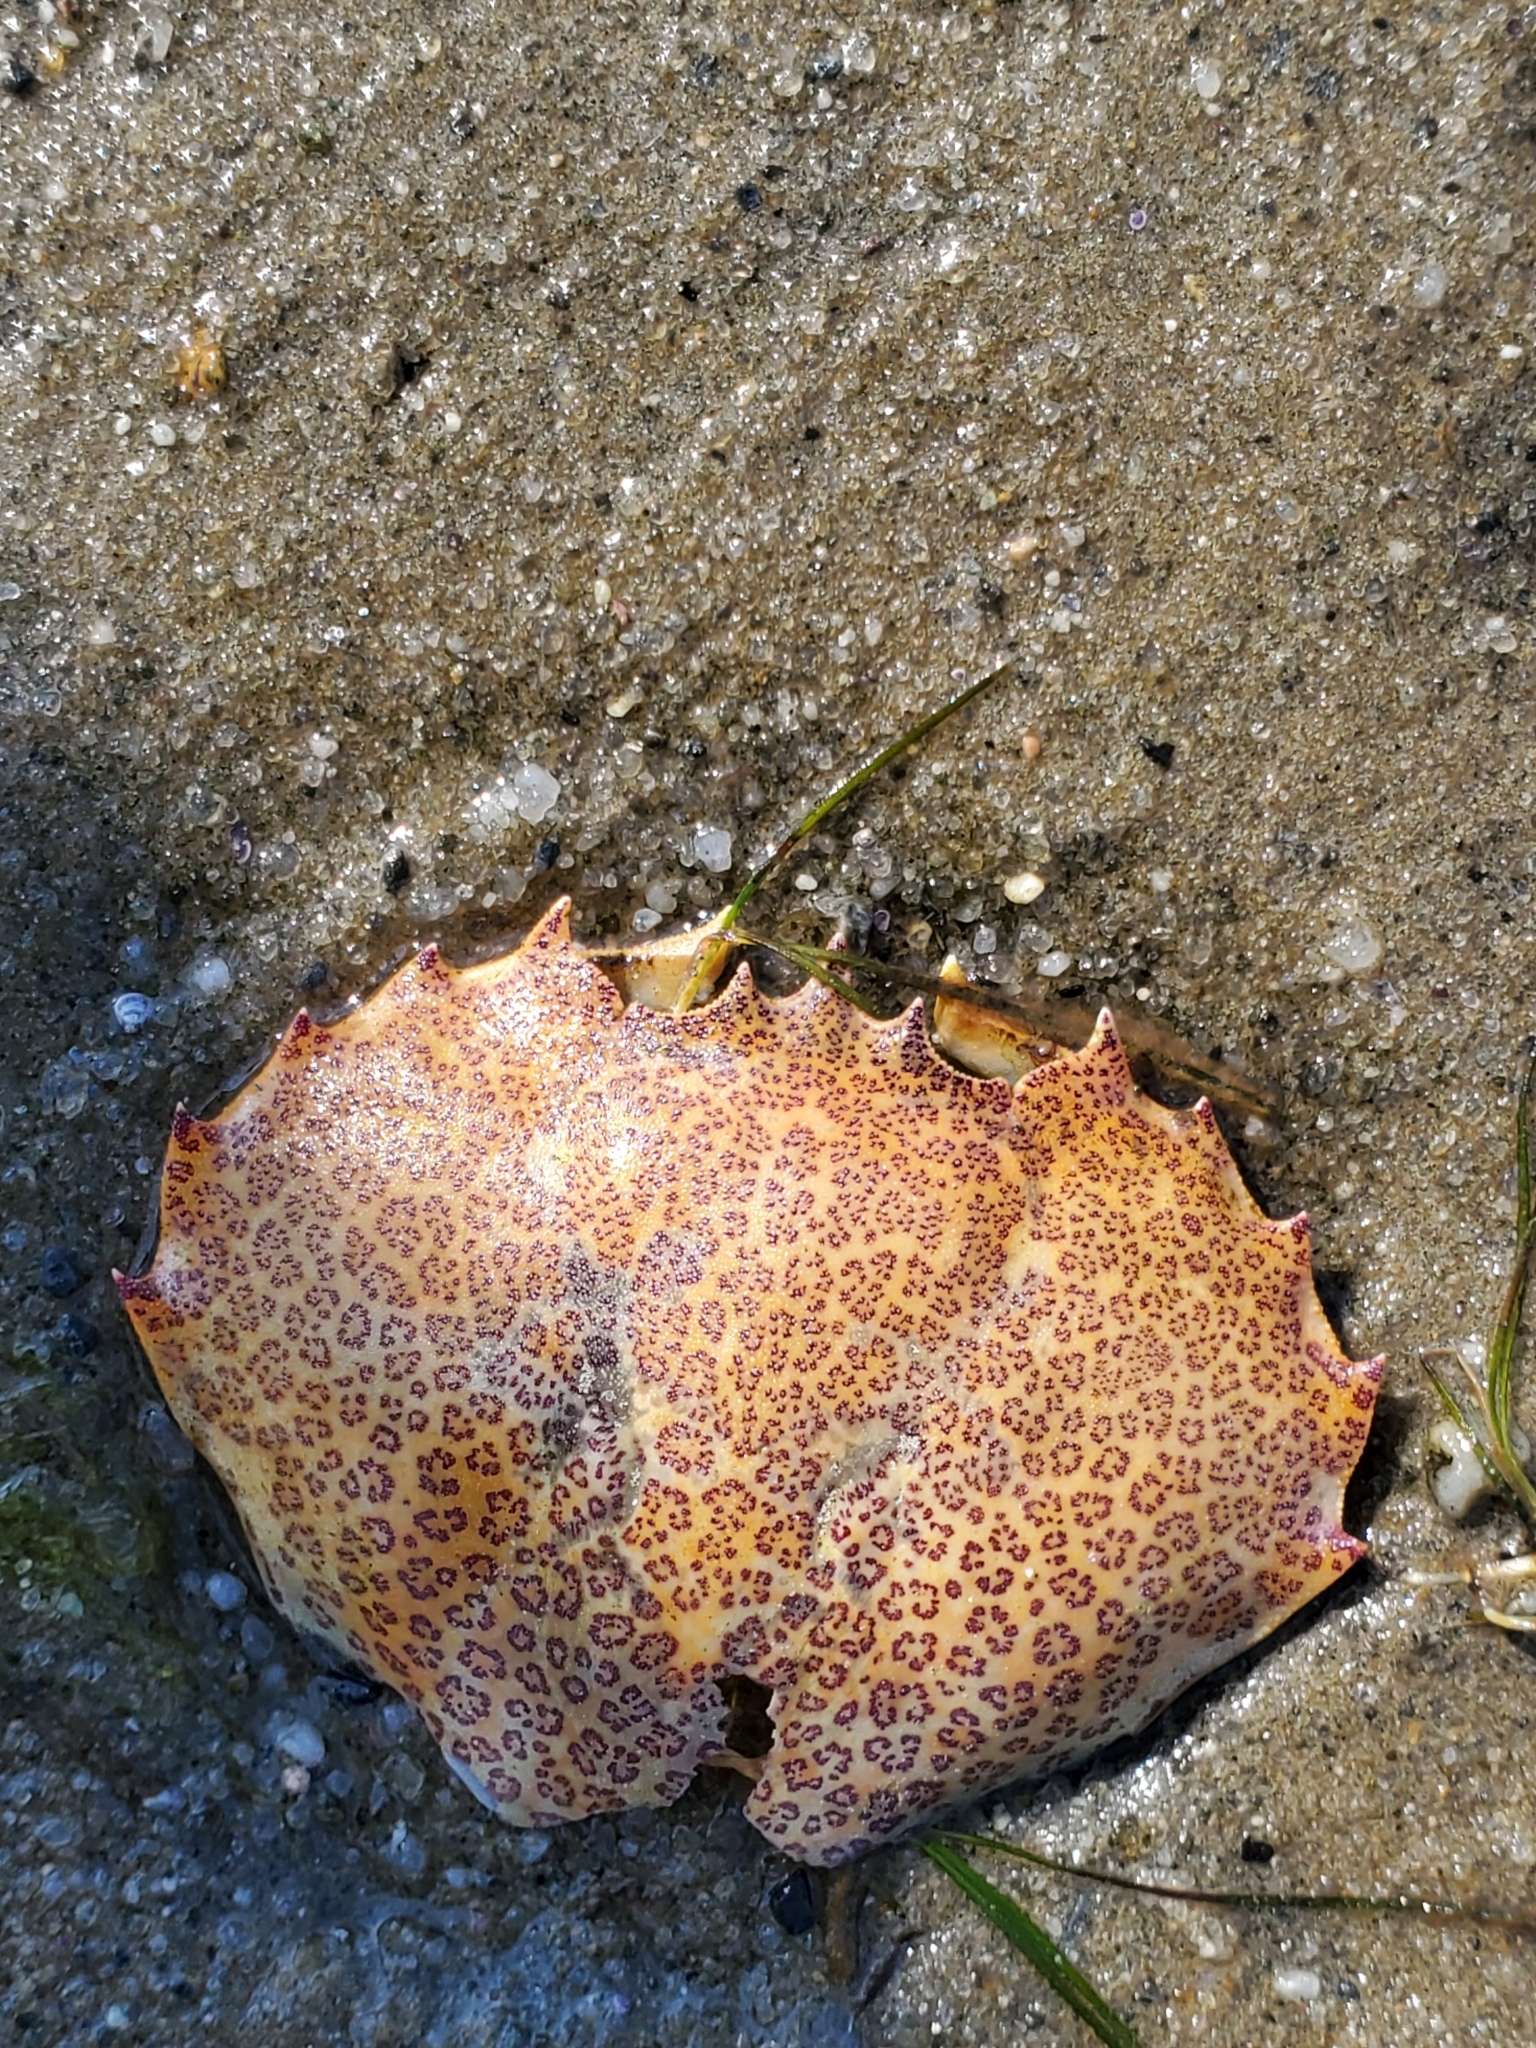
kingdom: Animalia
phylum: Arthropoda
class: Malacostraca
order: Decapoda
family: Ovalipidae
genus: Ovalipes
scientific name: Ovalipes ocellatus
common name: Lady crab
